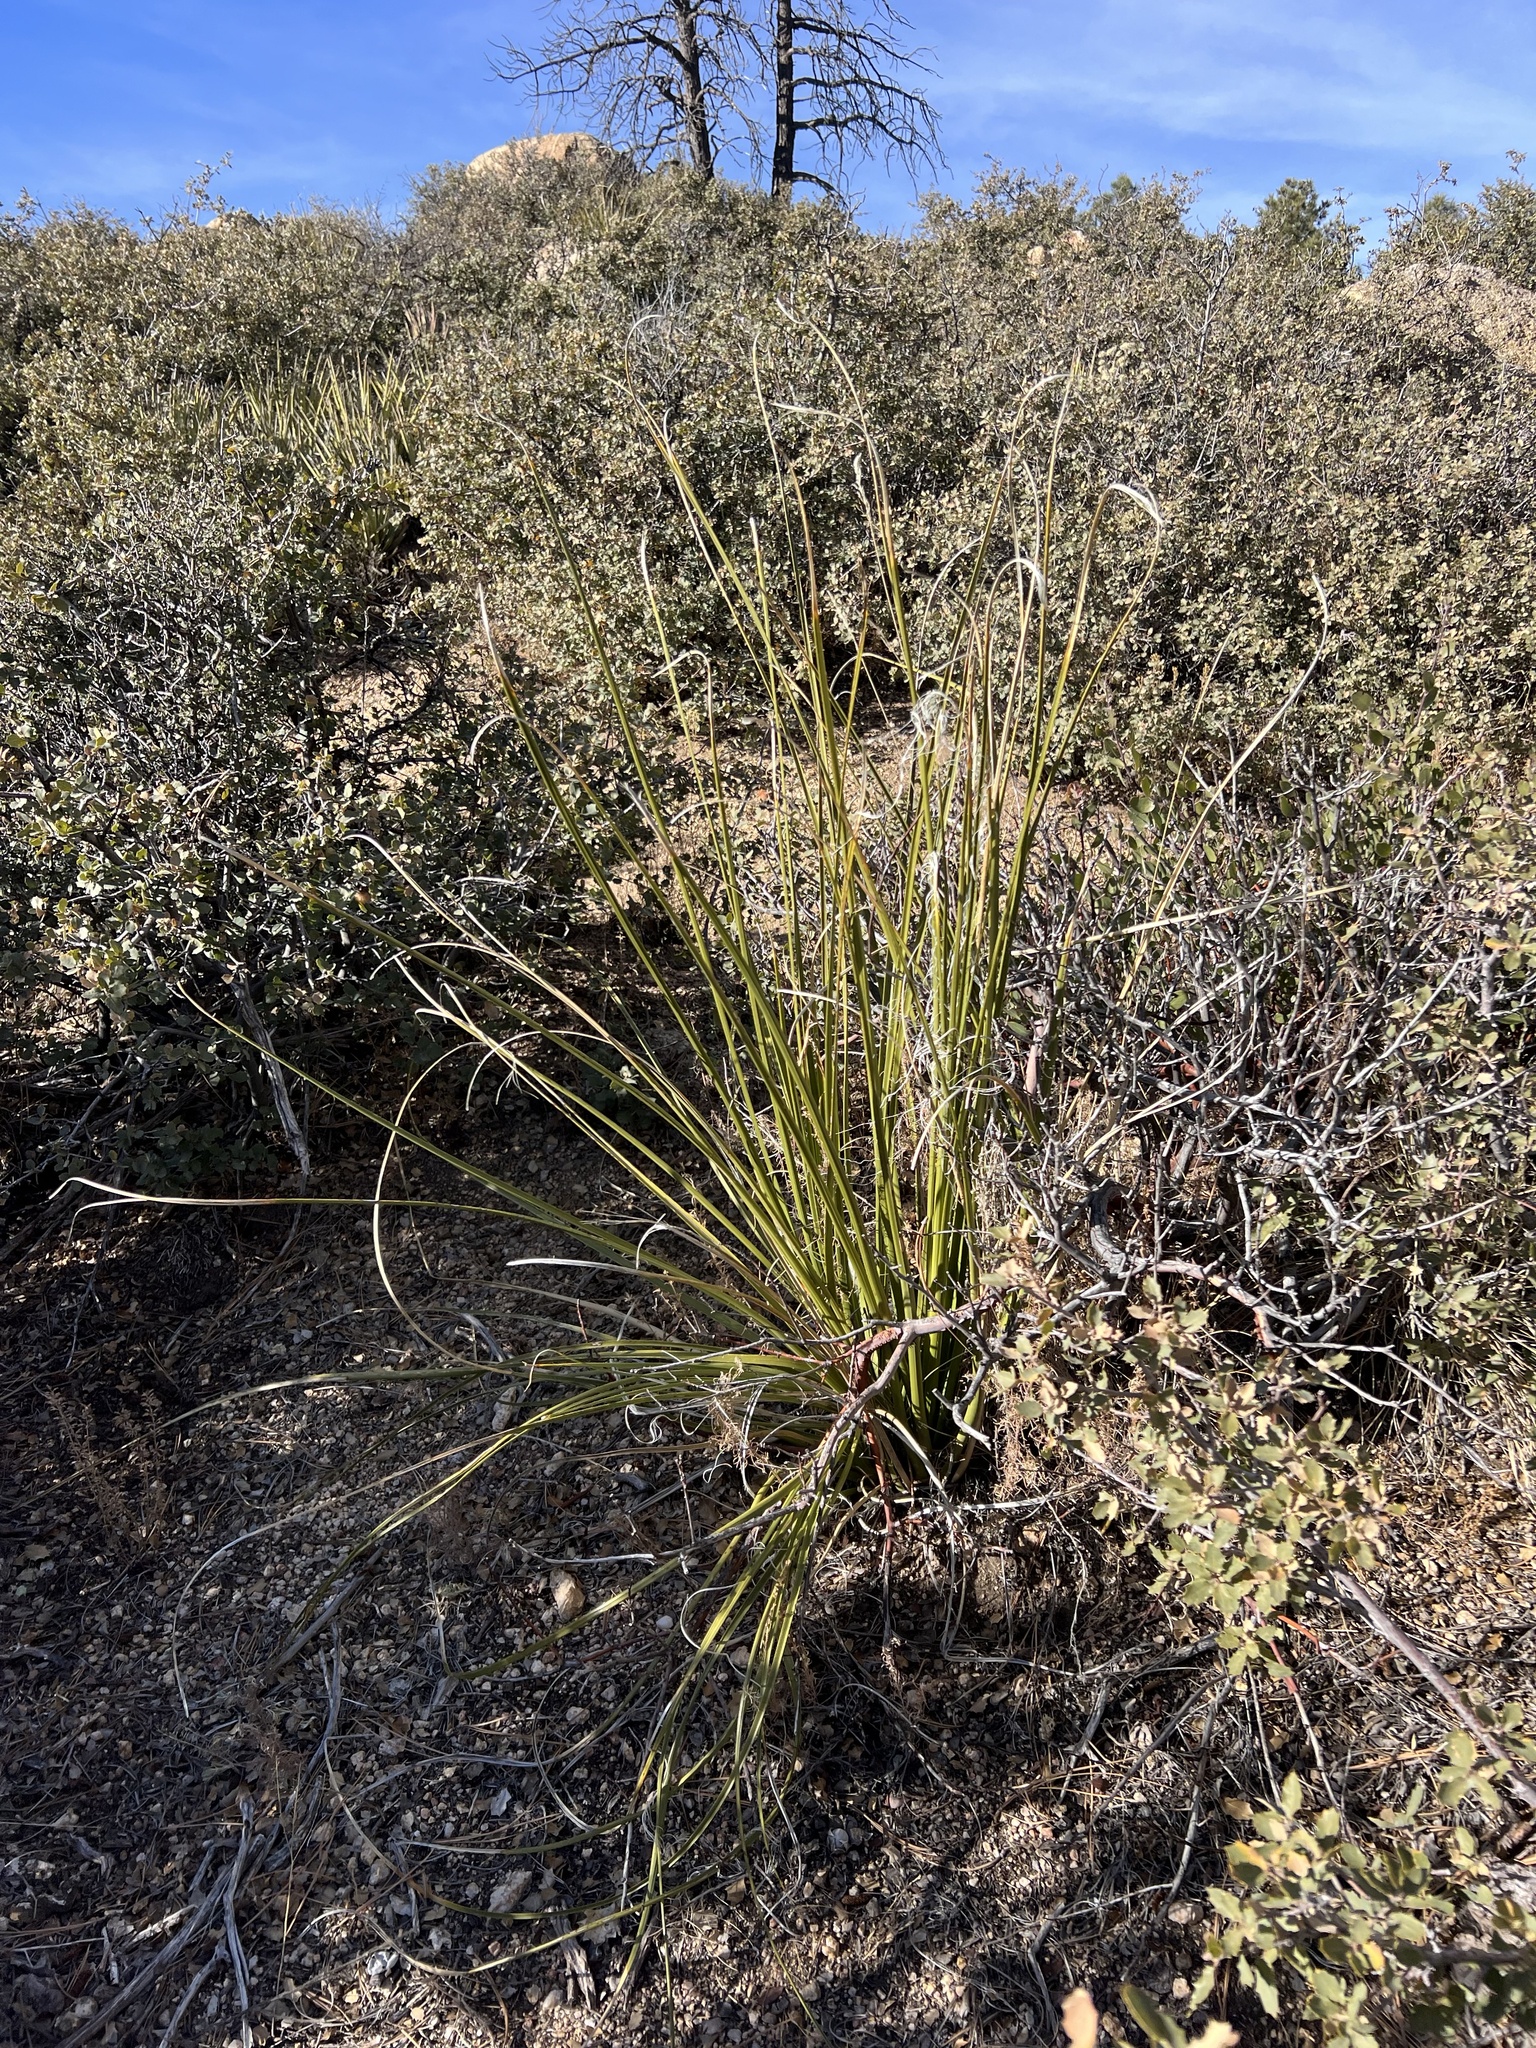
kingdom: Plantae
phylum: Tracheophyta
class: Liliopsida
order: Asparagales
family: Asparagaceae
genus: Nolina
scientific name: Nolina microcarpa
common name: Bear-grass
